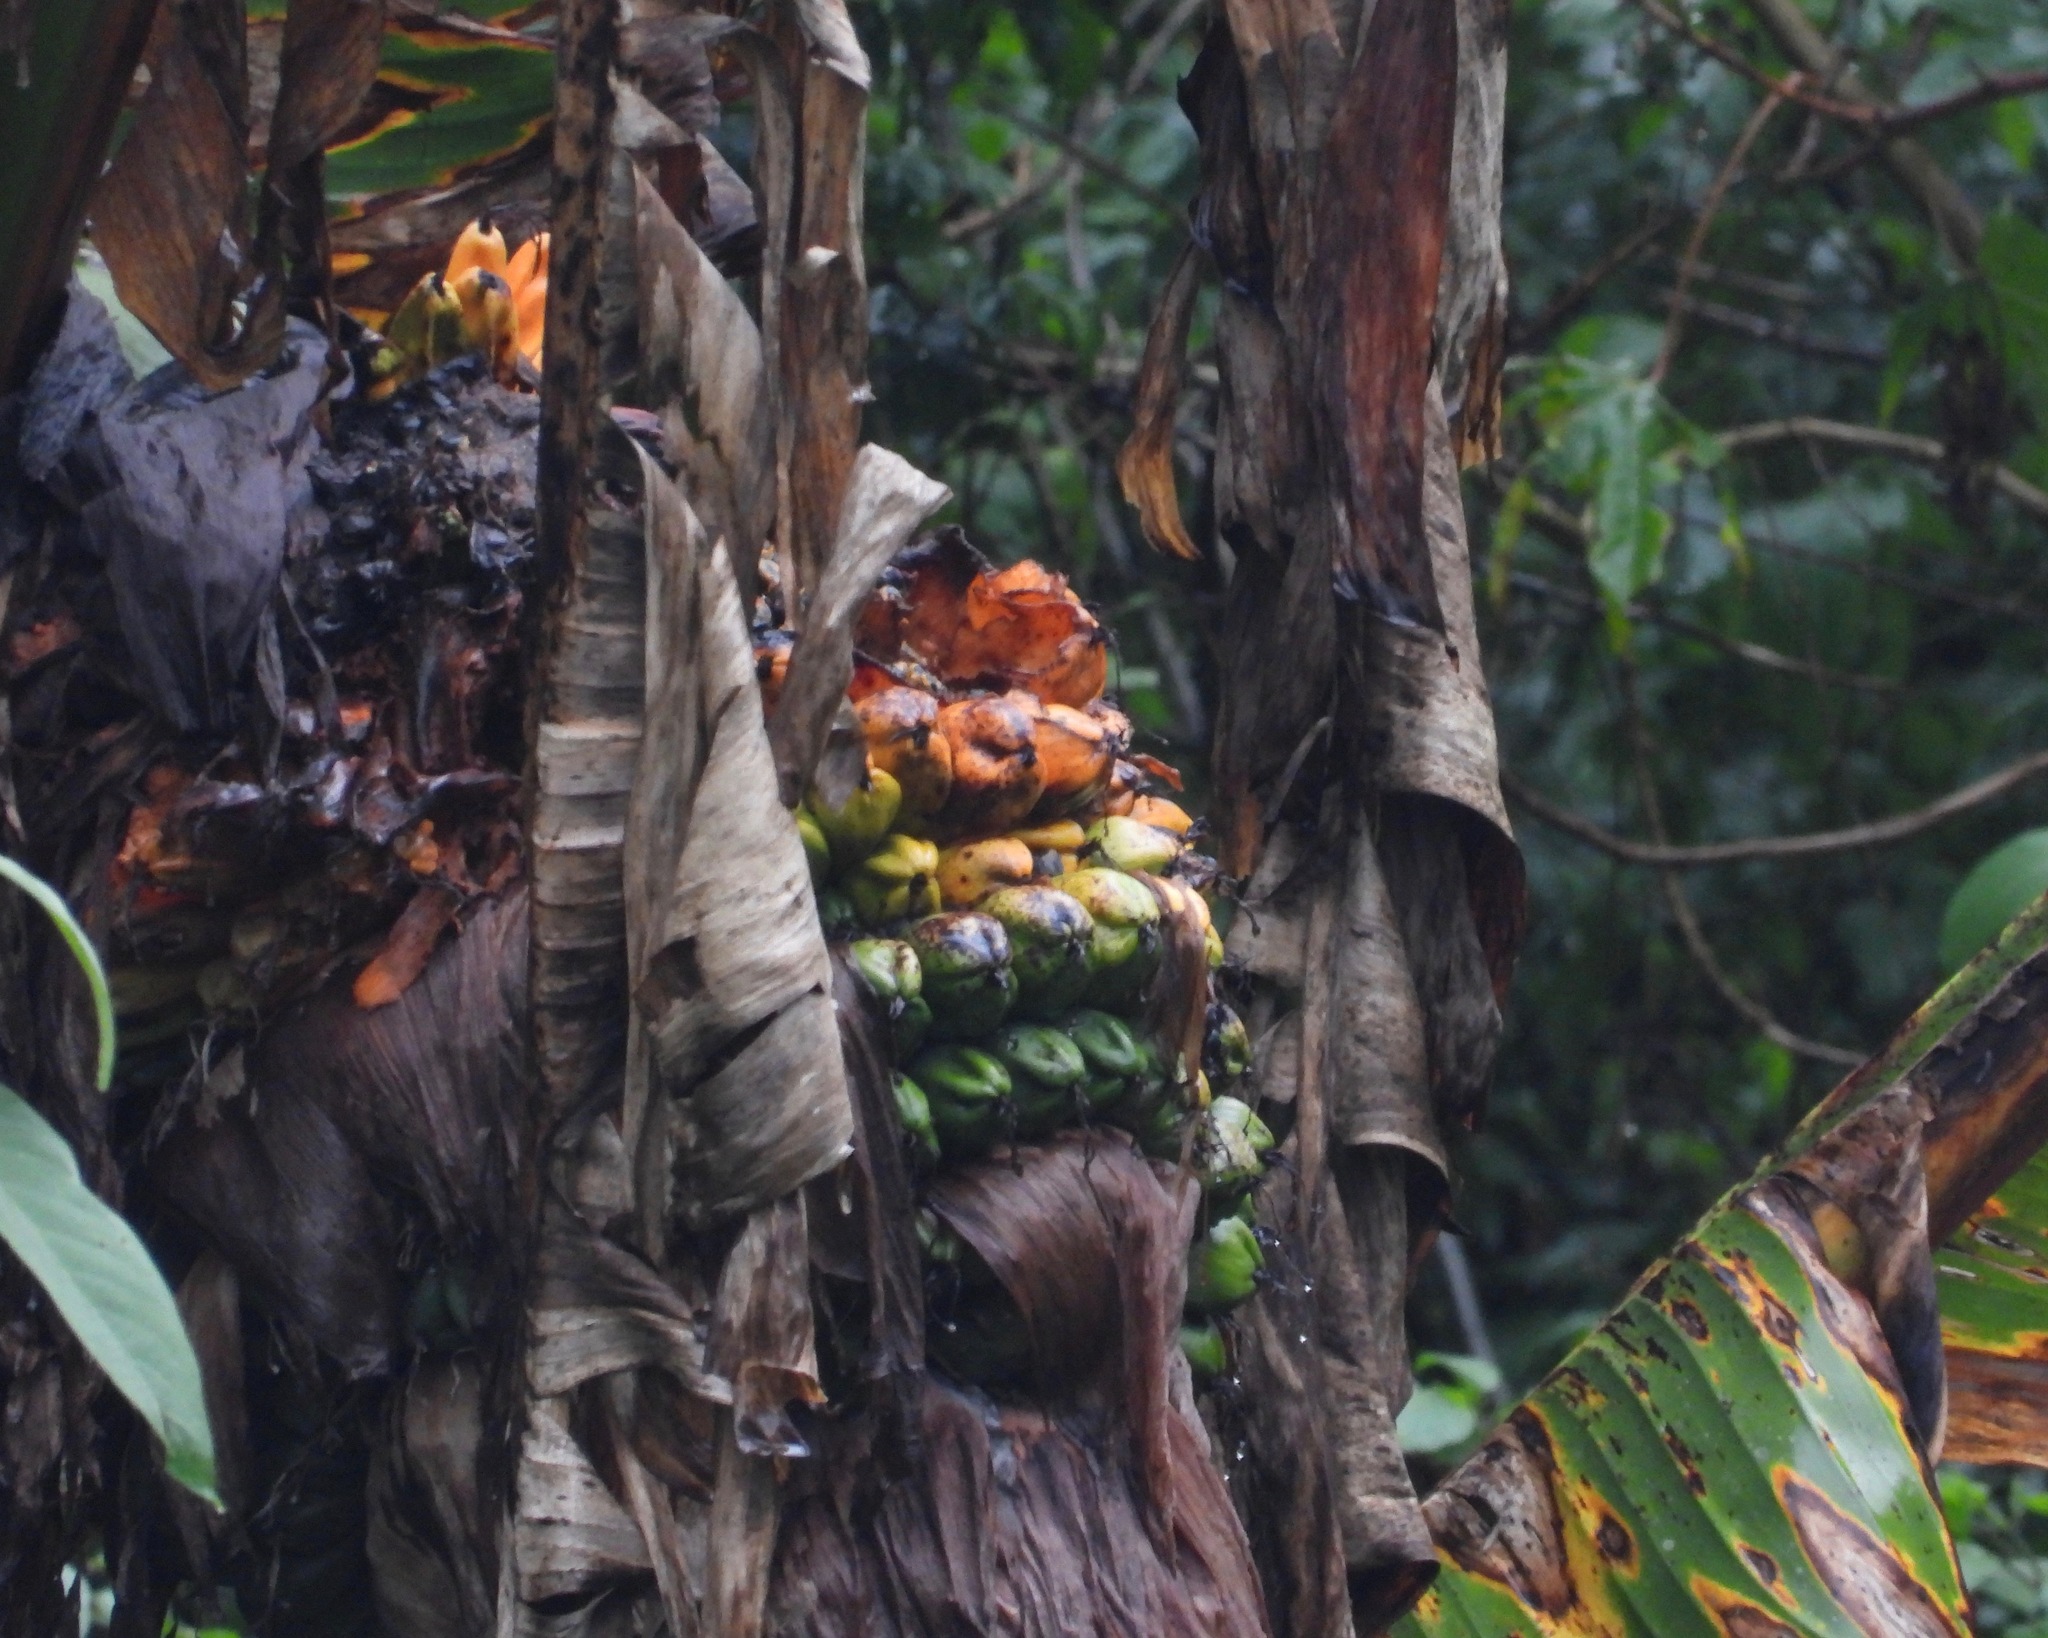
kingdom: Plantae
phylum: Tracheophyta
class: Liliopsida
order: Zingiberales
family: Musaceae
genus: Ensete
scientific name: Ensete ventricosum
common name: Abyssinian banana
